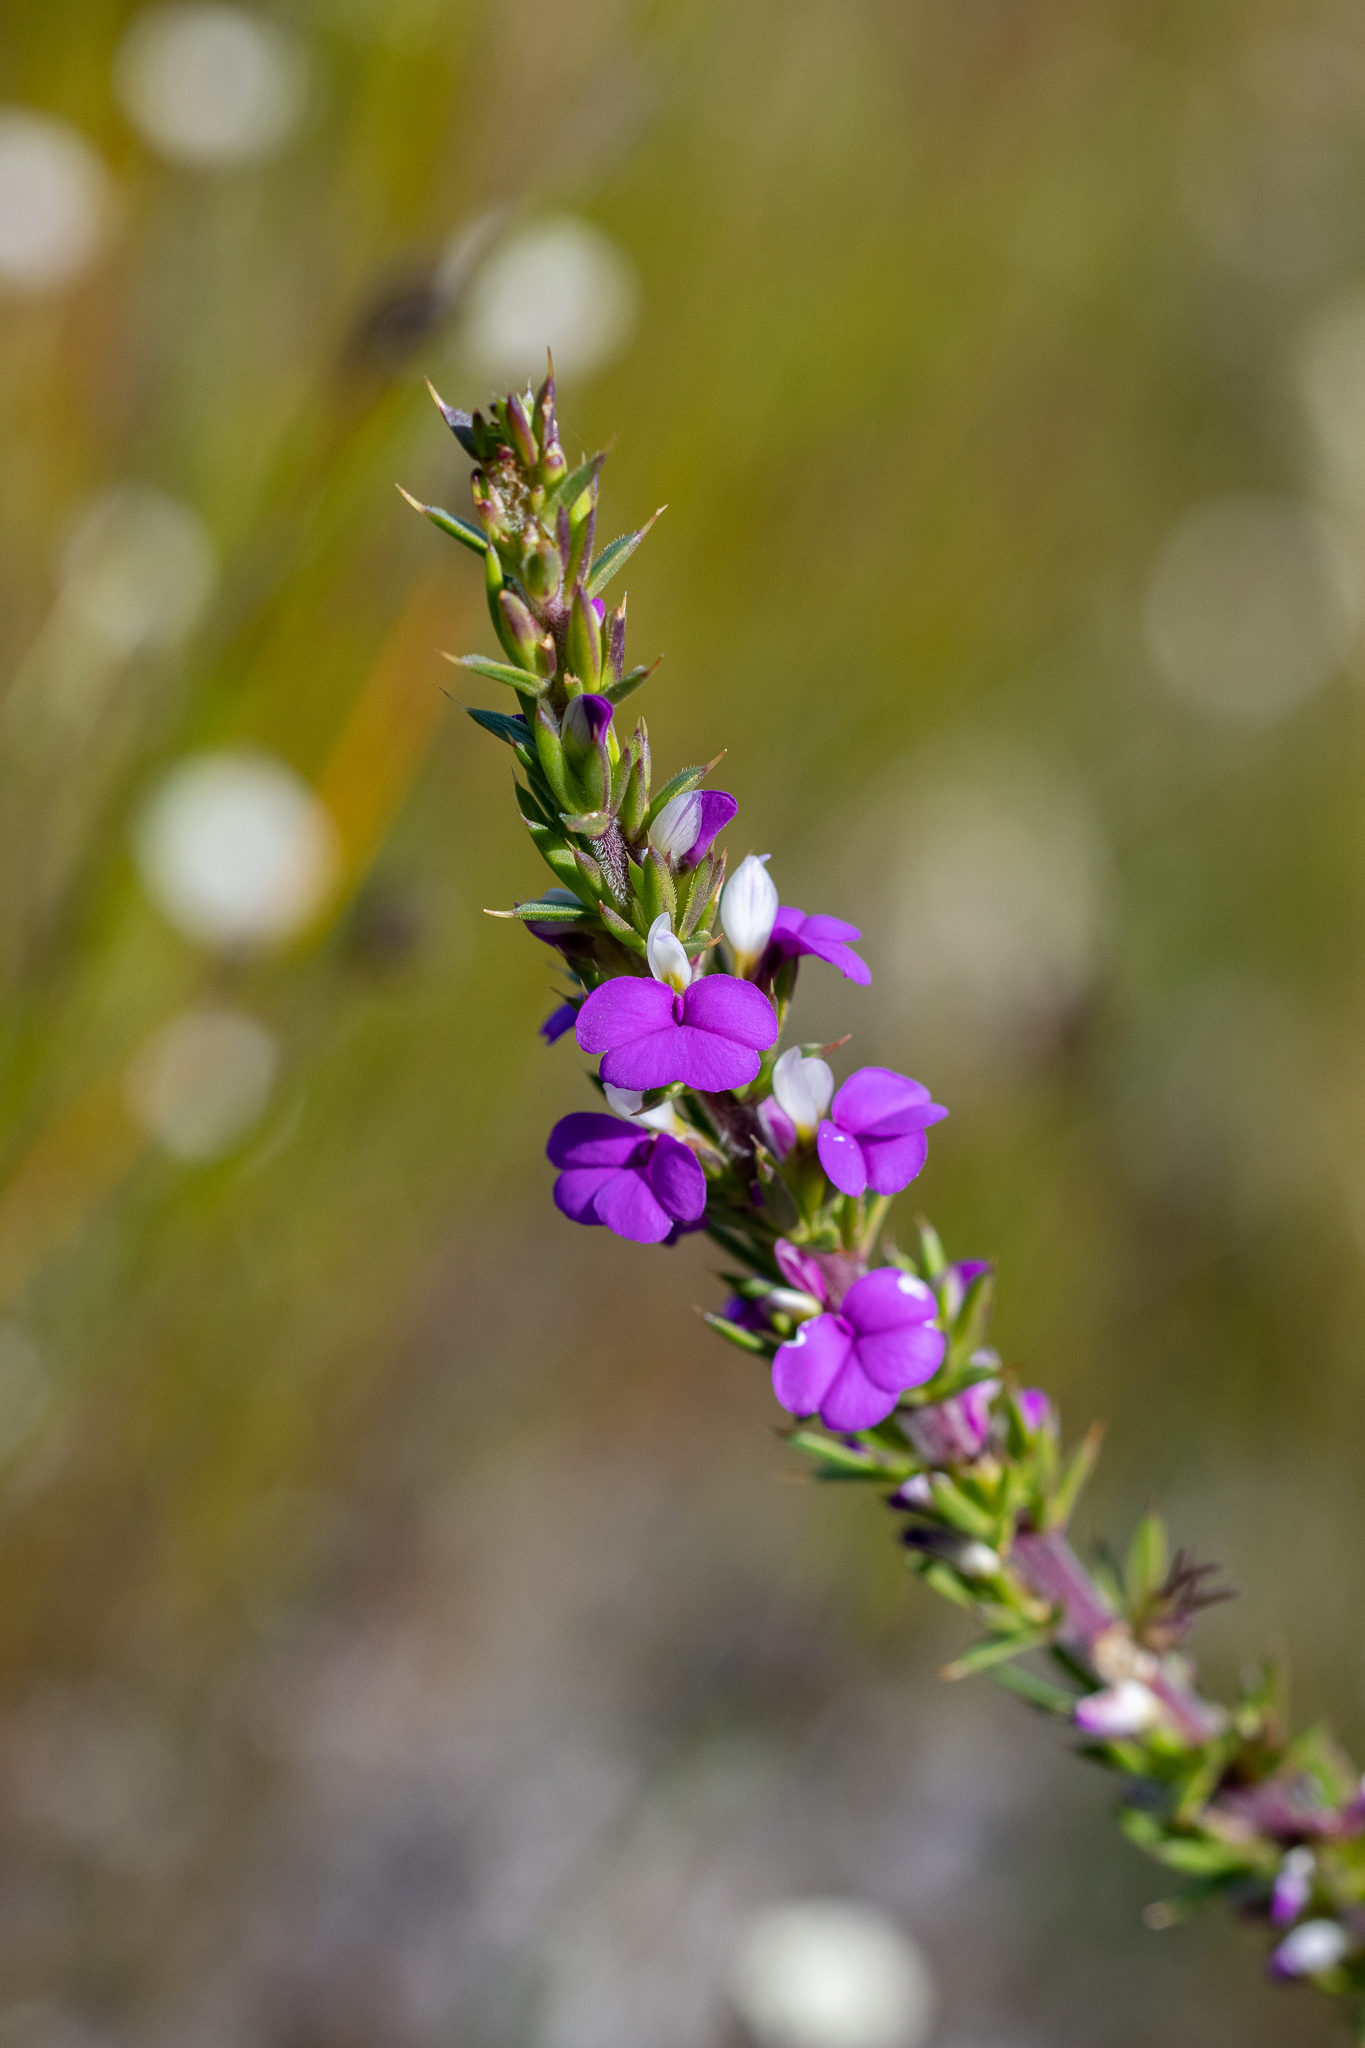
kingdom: Plantae
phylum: Tracheophyta
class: Magnoliopsida
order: Fabales
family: Polygalaceae
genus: Muraltia
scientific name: Muraltia heisteria
